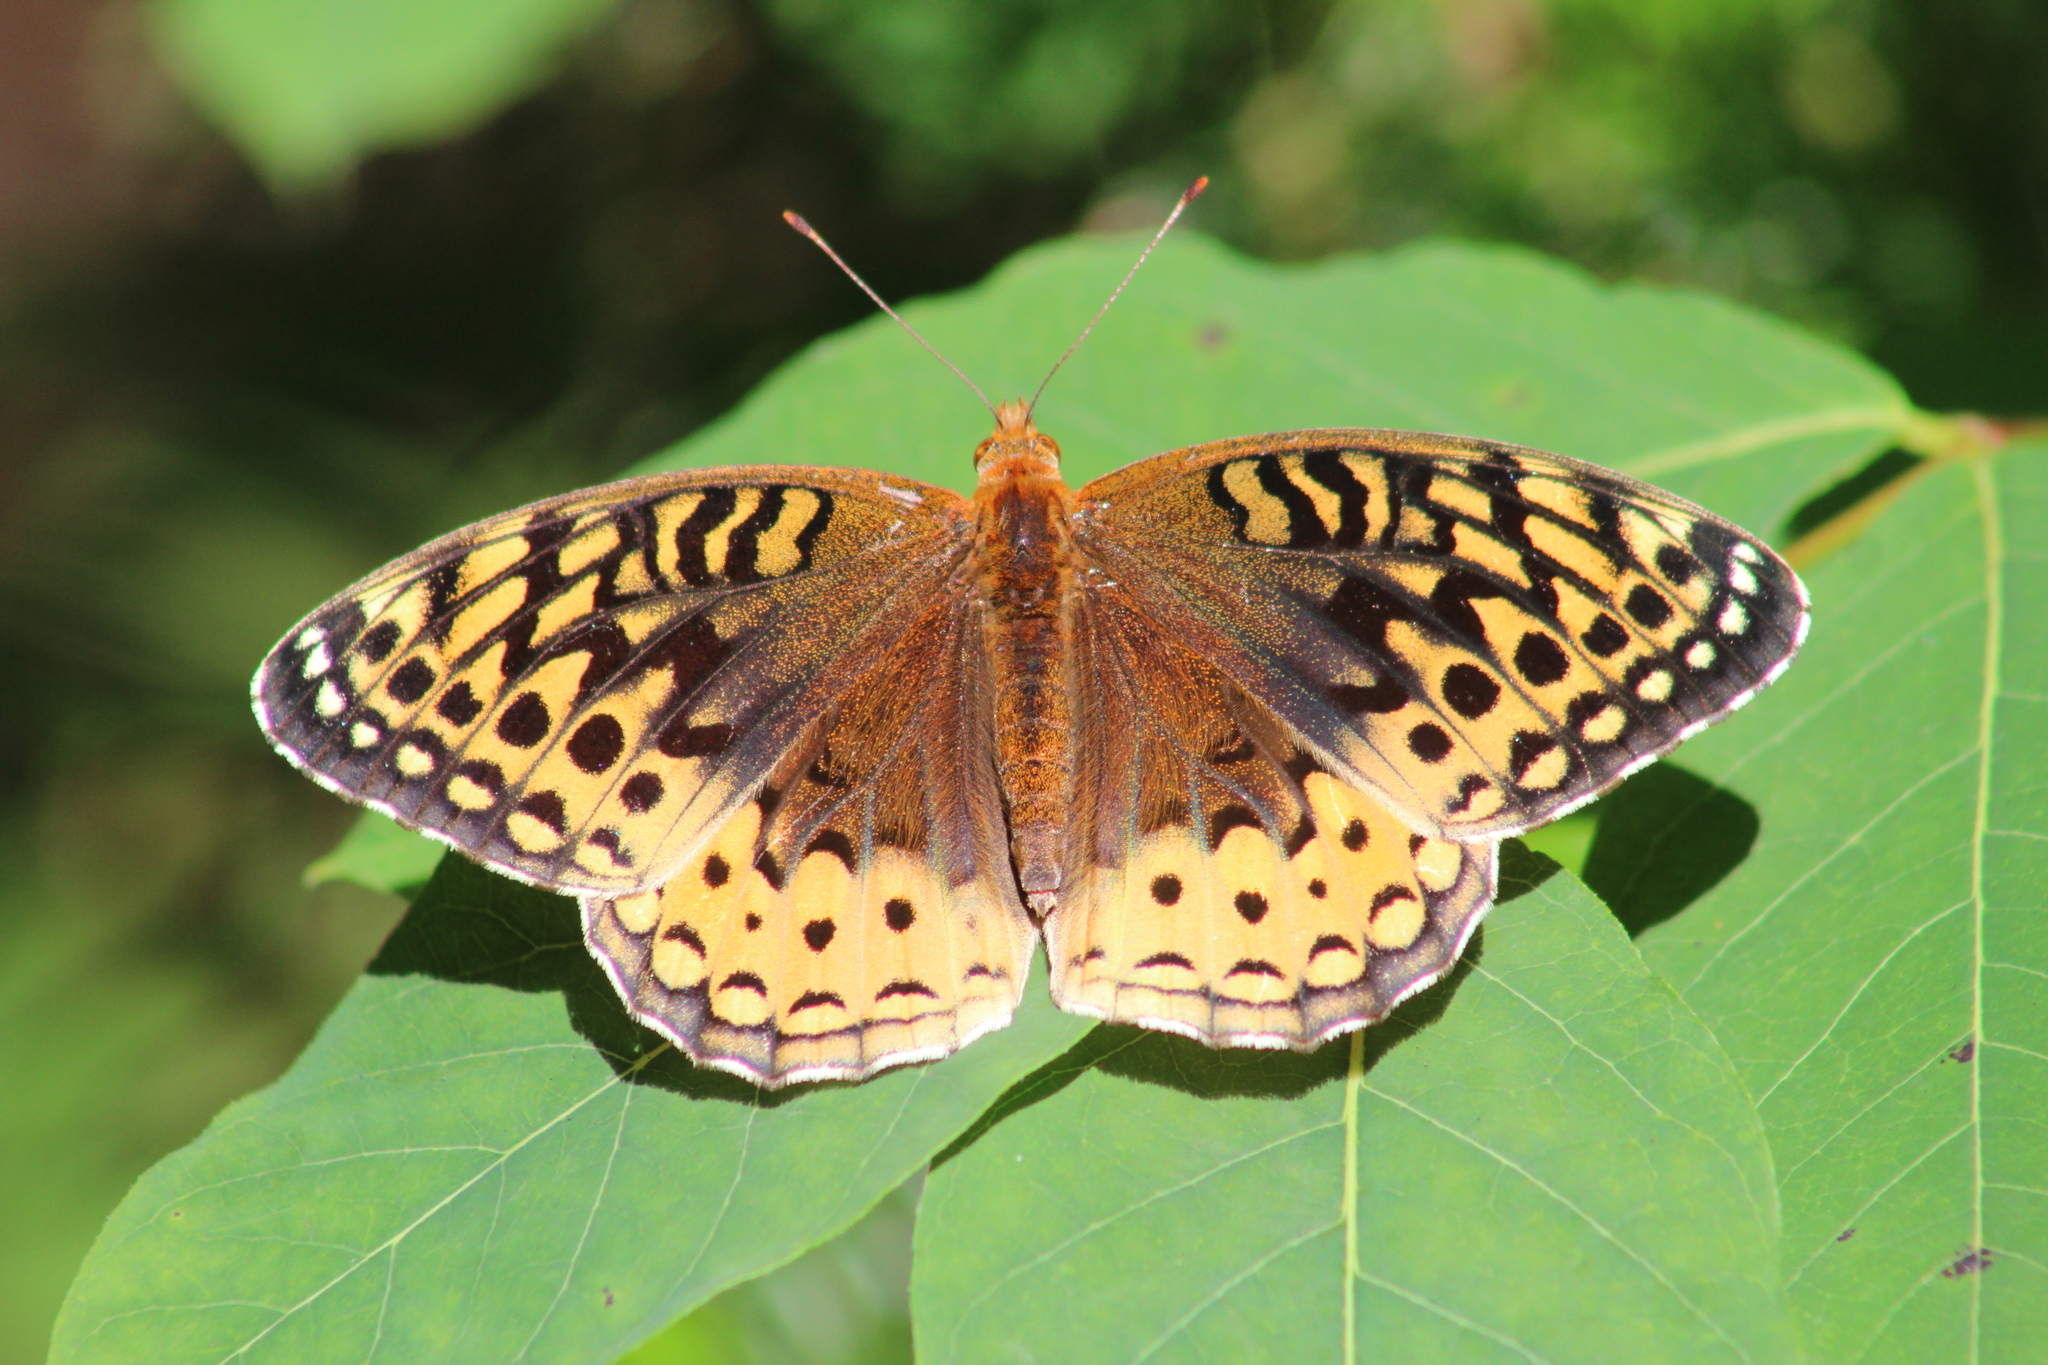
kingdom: Animalia
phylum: Arthropoda
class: Insecta
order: Lepidoptera
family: Nymphalidae
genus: Speyeria
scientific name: Speyeria cybele
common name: Great spangled fritillary
